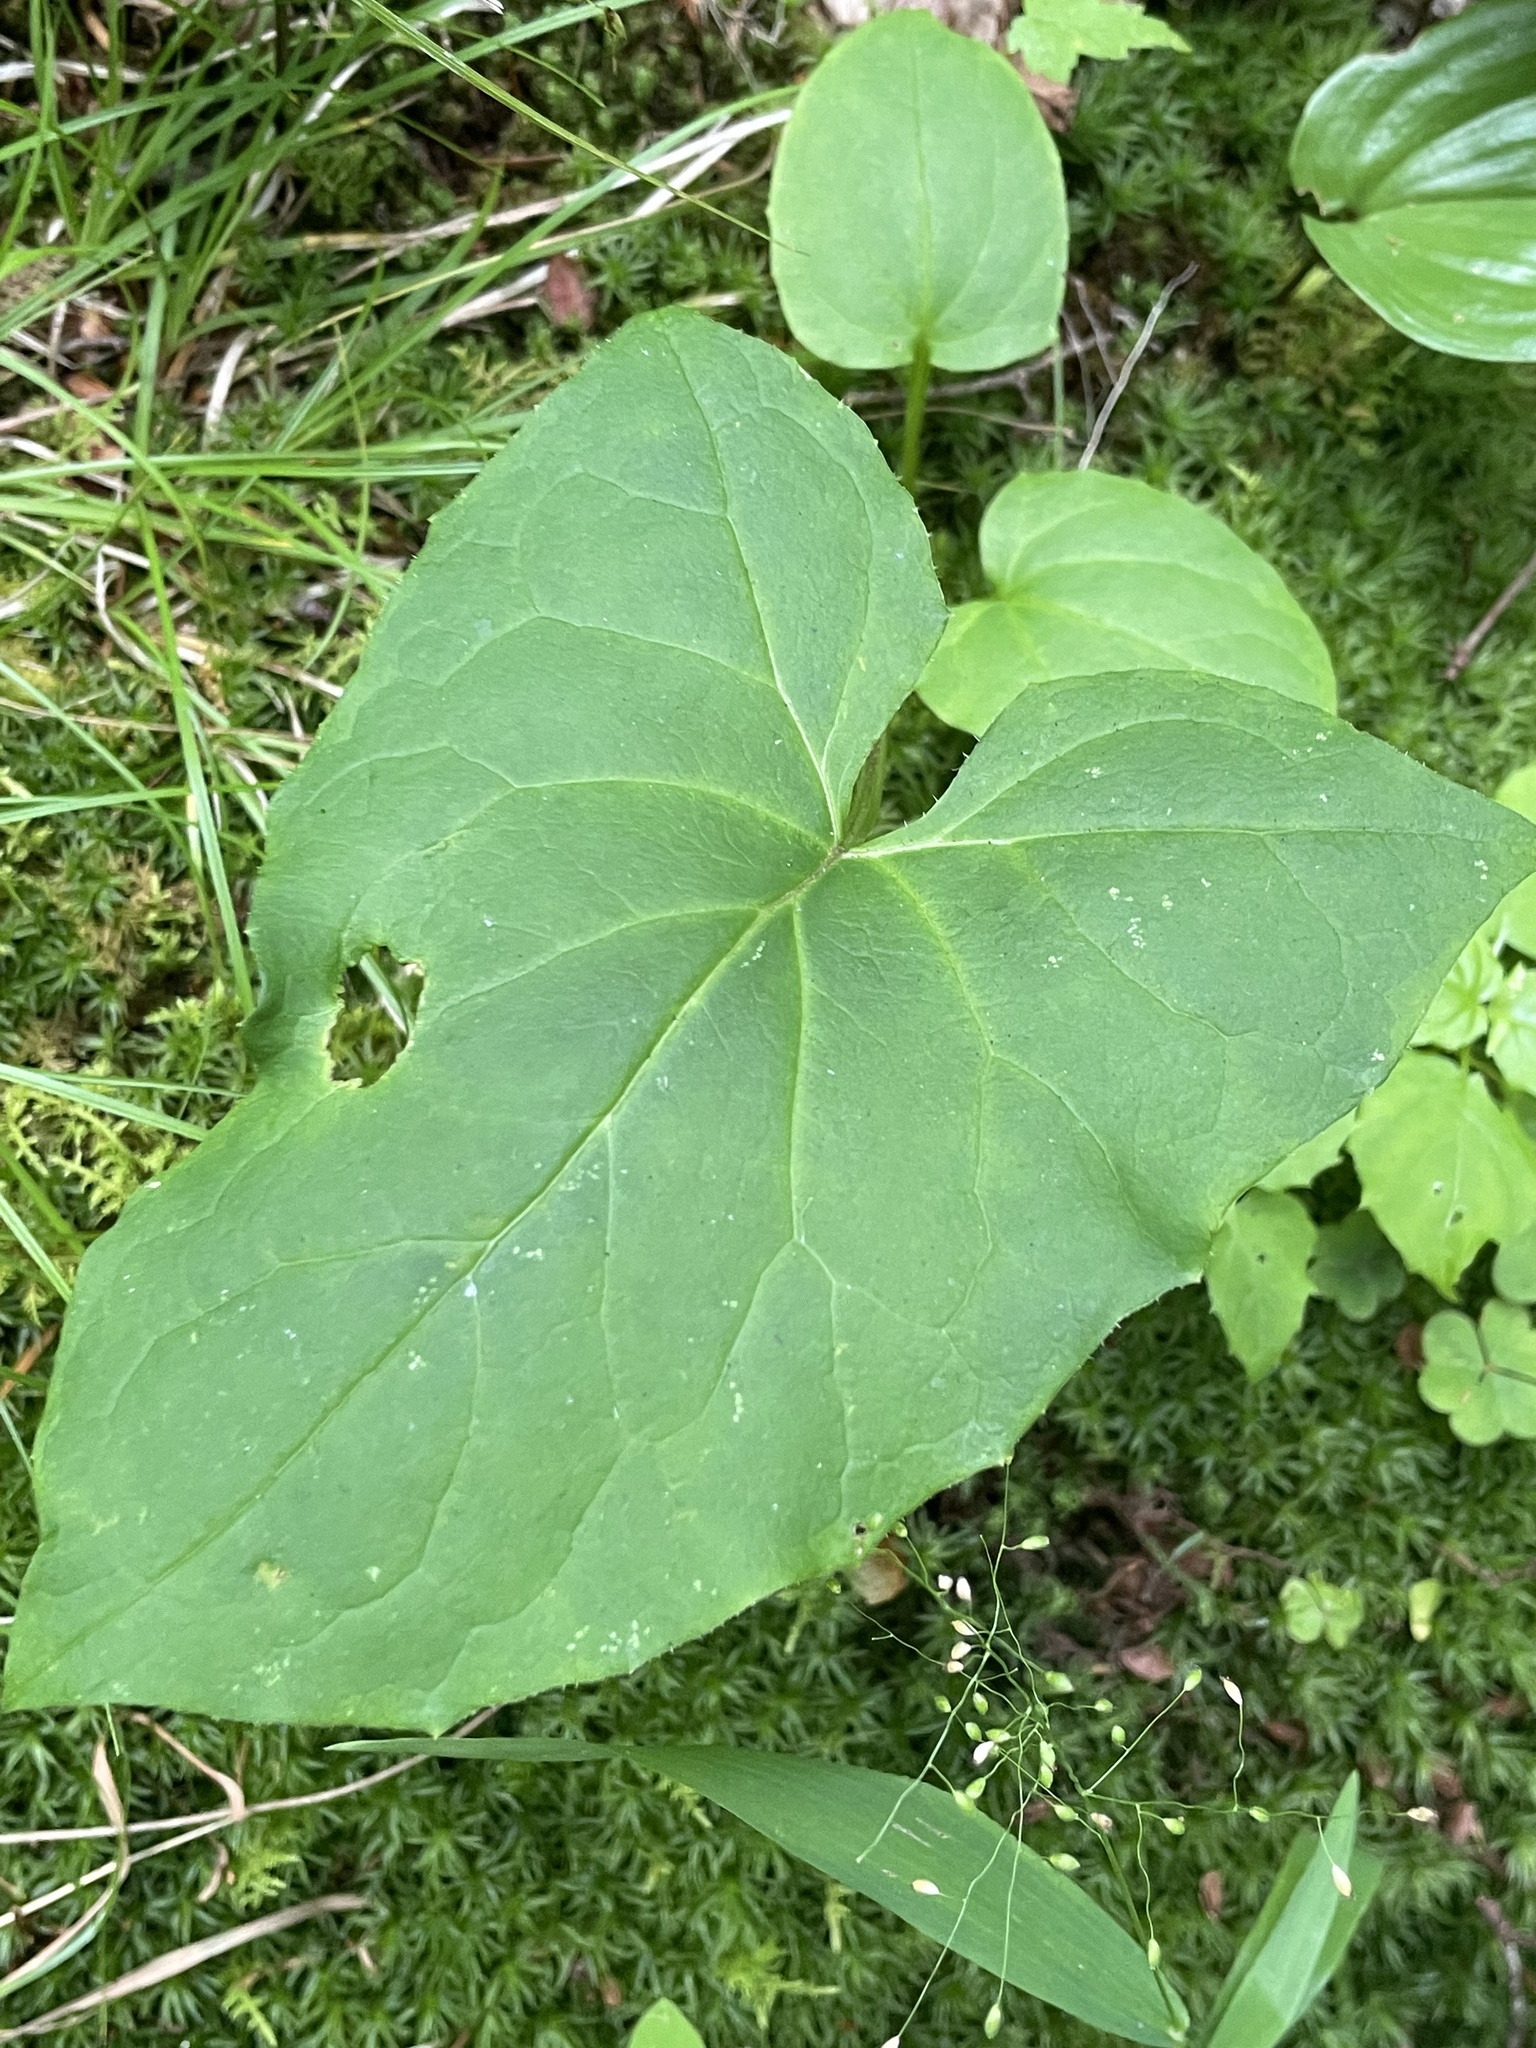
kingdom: Plantae
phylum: Tracheophyta
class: Magnoliopsida
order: Asterales
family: Asteraceae
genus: Nabalus
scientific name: Nabalus altissima
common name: Tall rattlesnakeroot
